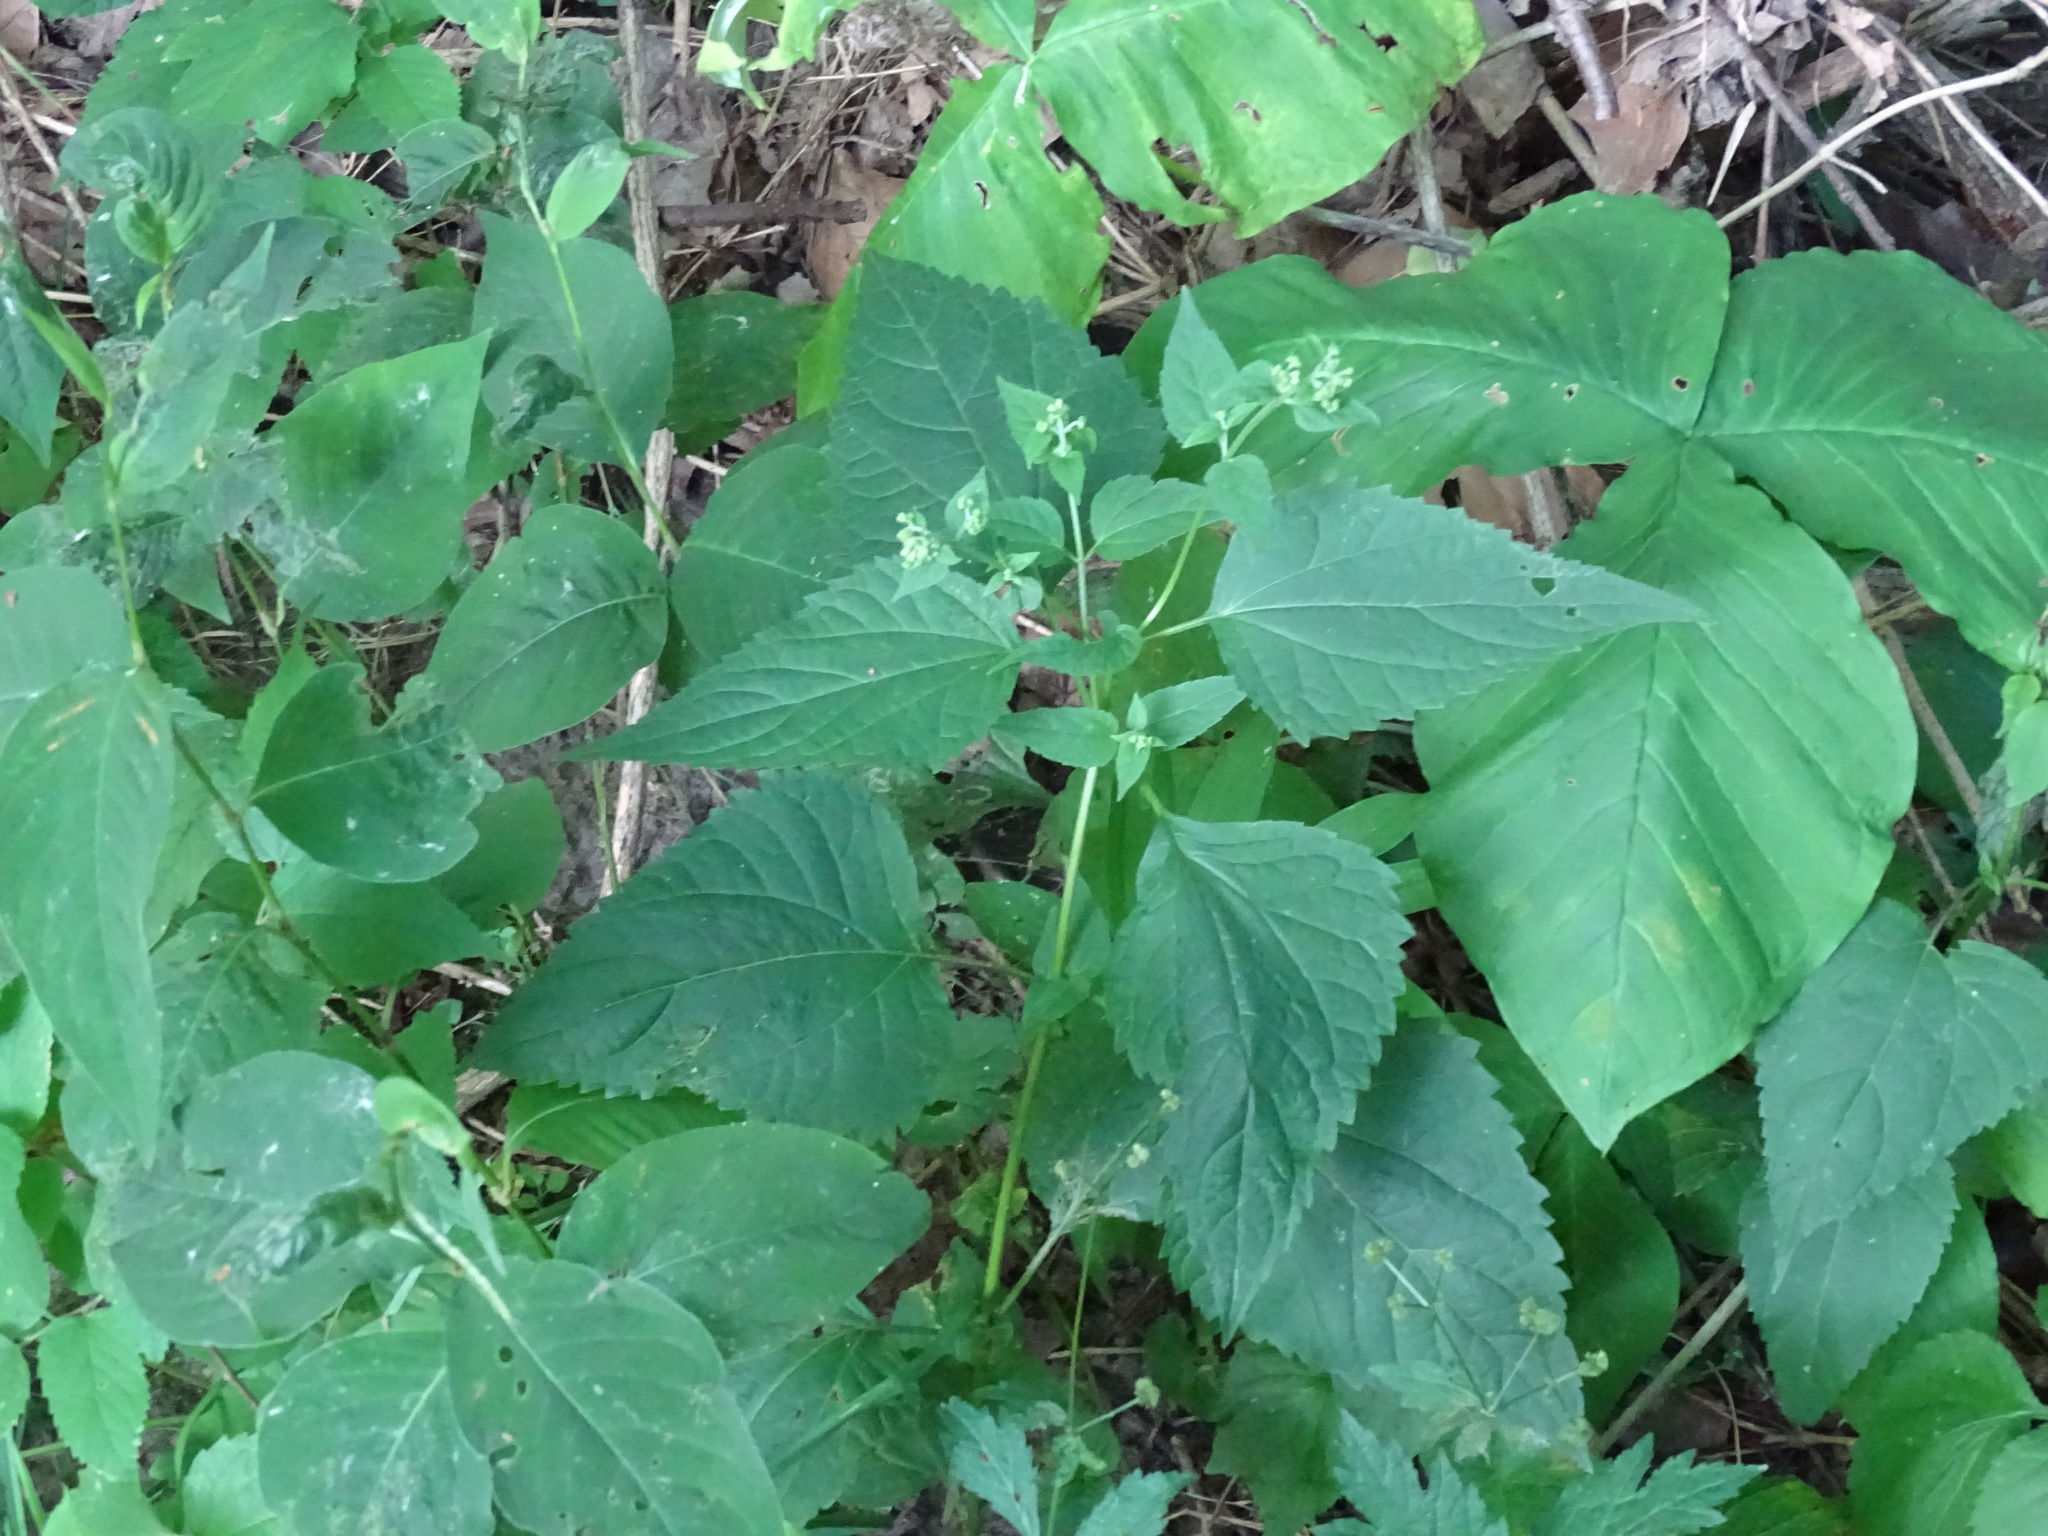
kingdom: Plantae
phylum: Tracheophyta
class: Magnoliopsida
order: Asterales
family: Asteraceae
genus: Ageratina
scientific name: Ageratina altissima
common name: White snakeroot
